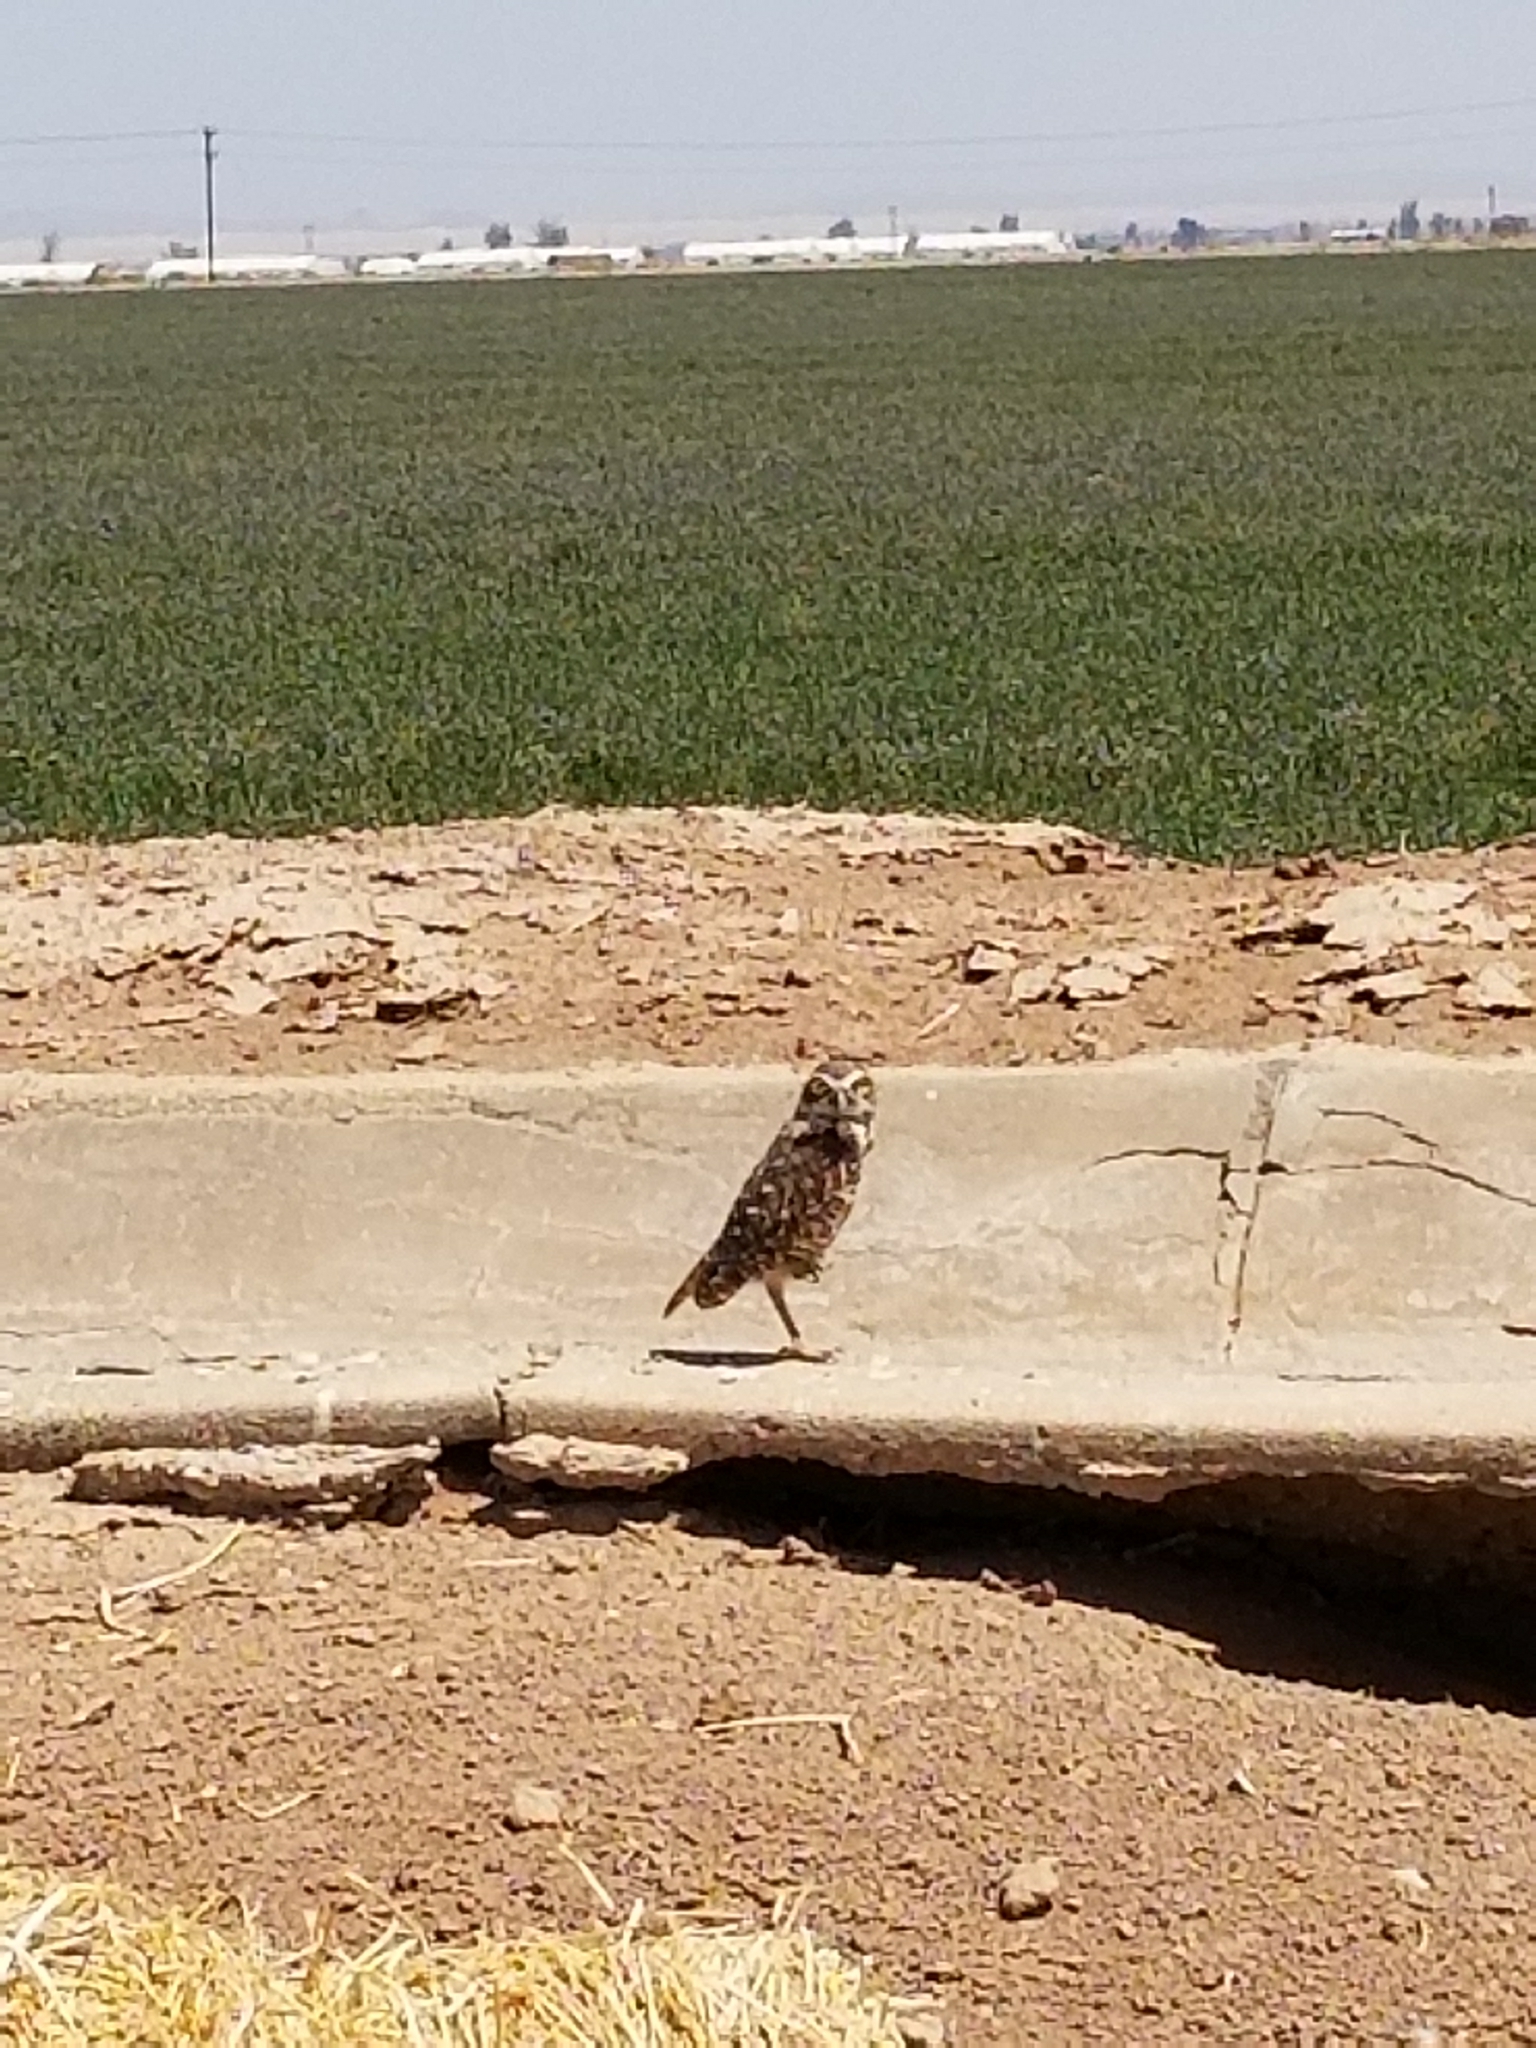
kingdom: Animalia
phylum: Chordata
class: Aves
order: Strigiformes
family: Strigidae
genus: Athene
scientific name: Athene cunicularia
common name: Burrowing owl
